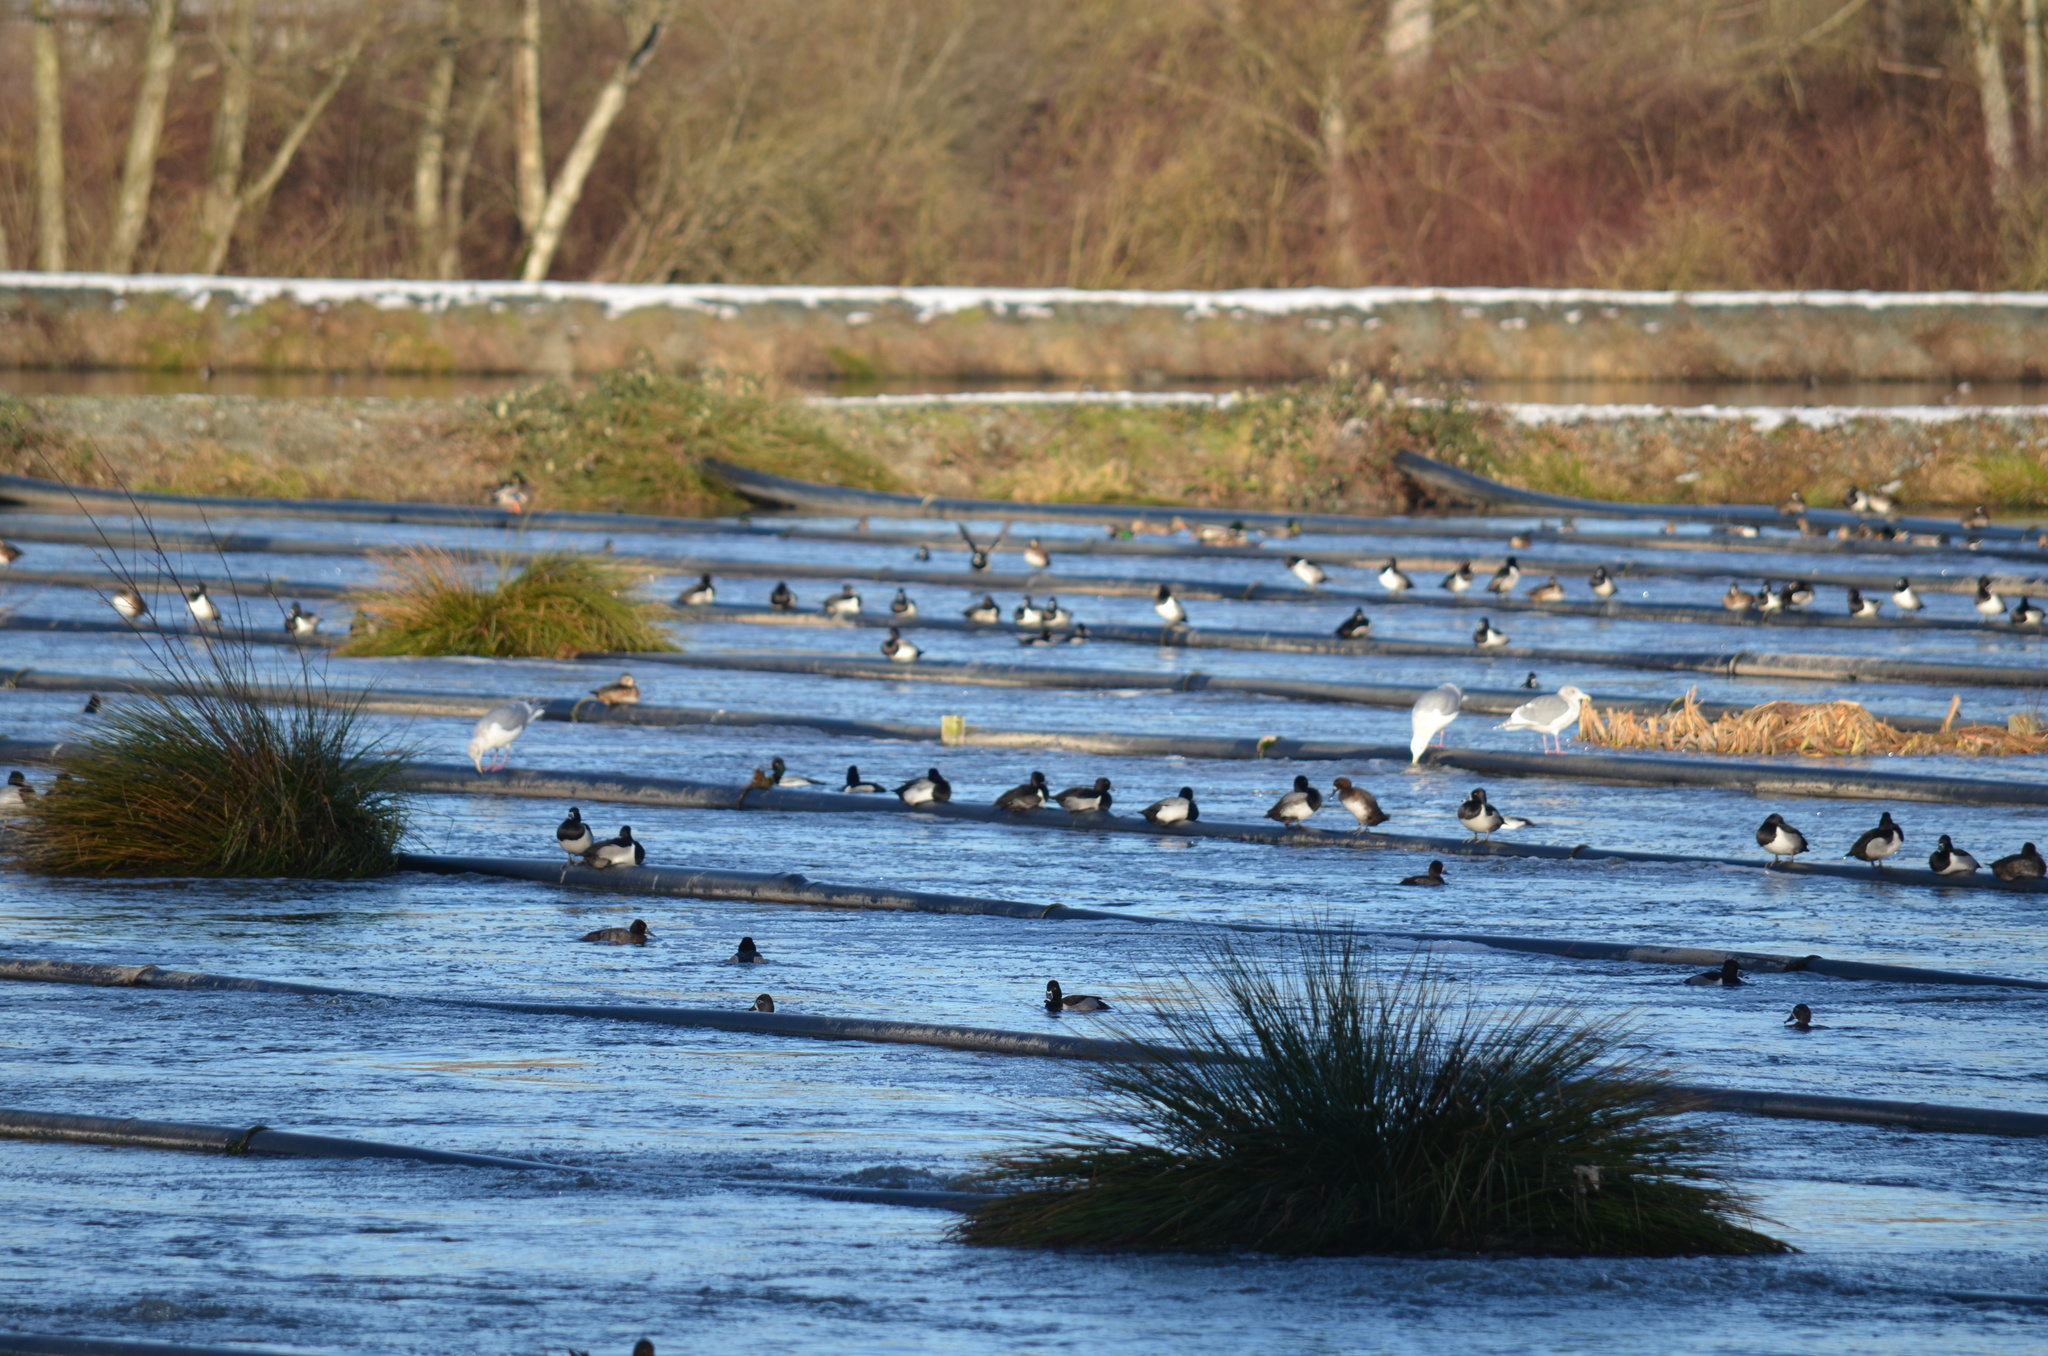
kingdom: Animalia
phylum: Chordata
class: Aves
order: Anseriformes
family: Anatidae
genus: Aythya
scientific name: Aythya collaris
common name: Ring-necked duck
